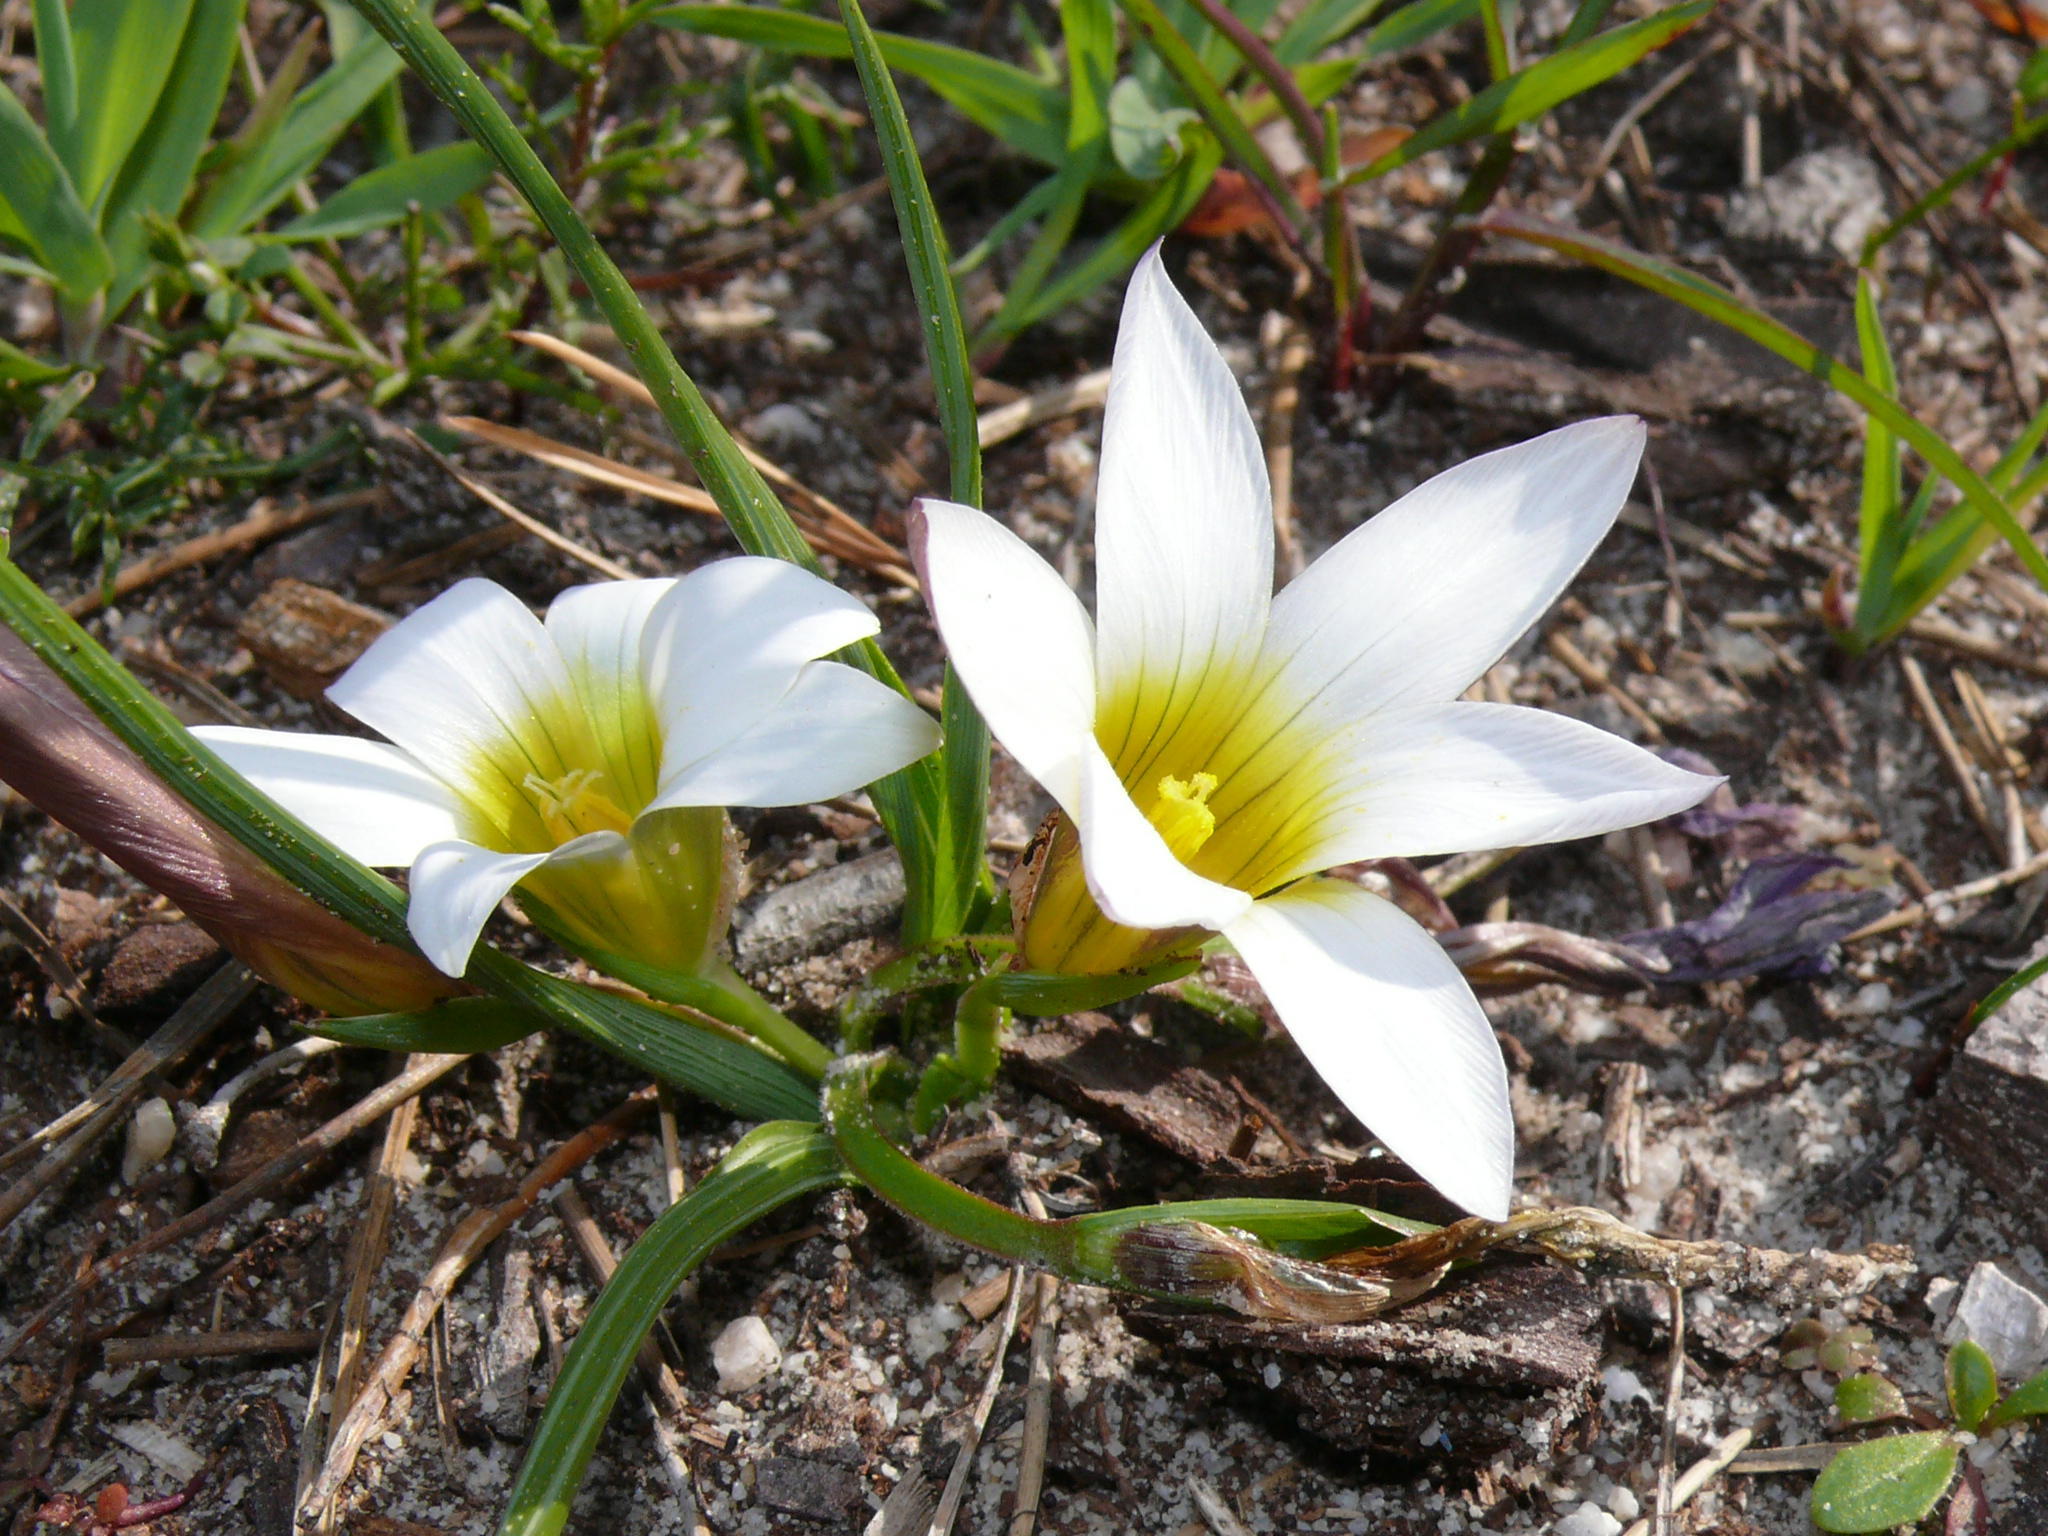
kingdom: Plantae
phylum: Tracheophyta
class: Liliopsida
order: Asparagales
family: Iridaceae
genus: Romulea
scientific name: Romulea flava
